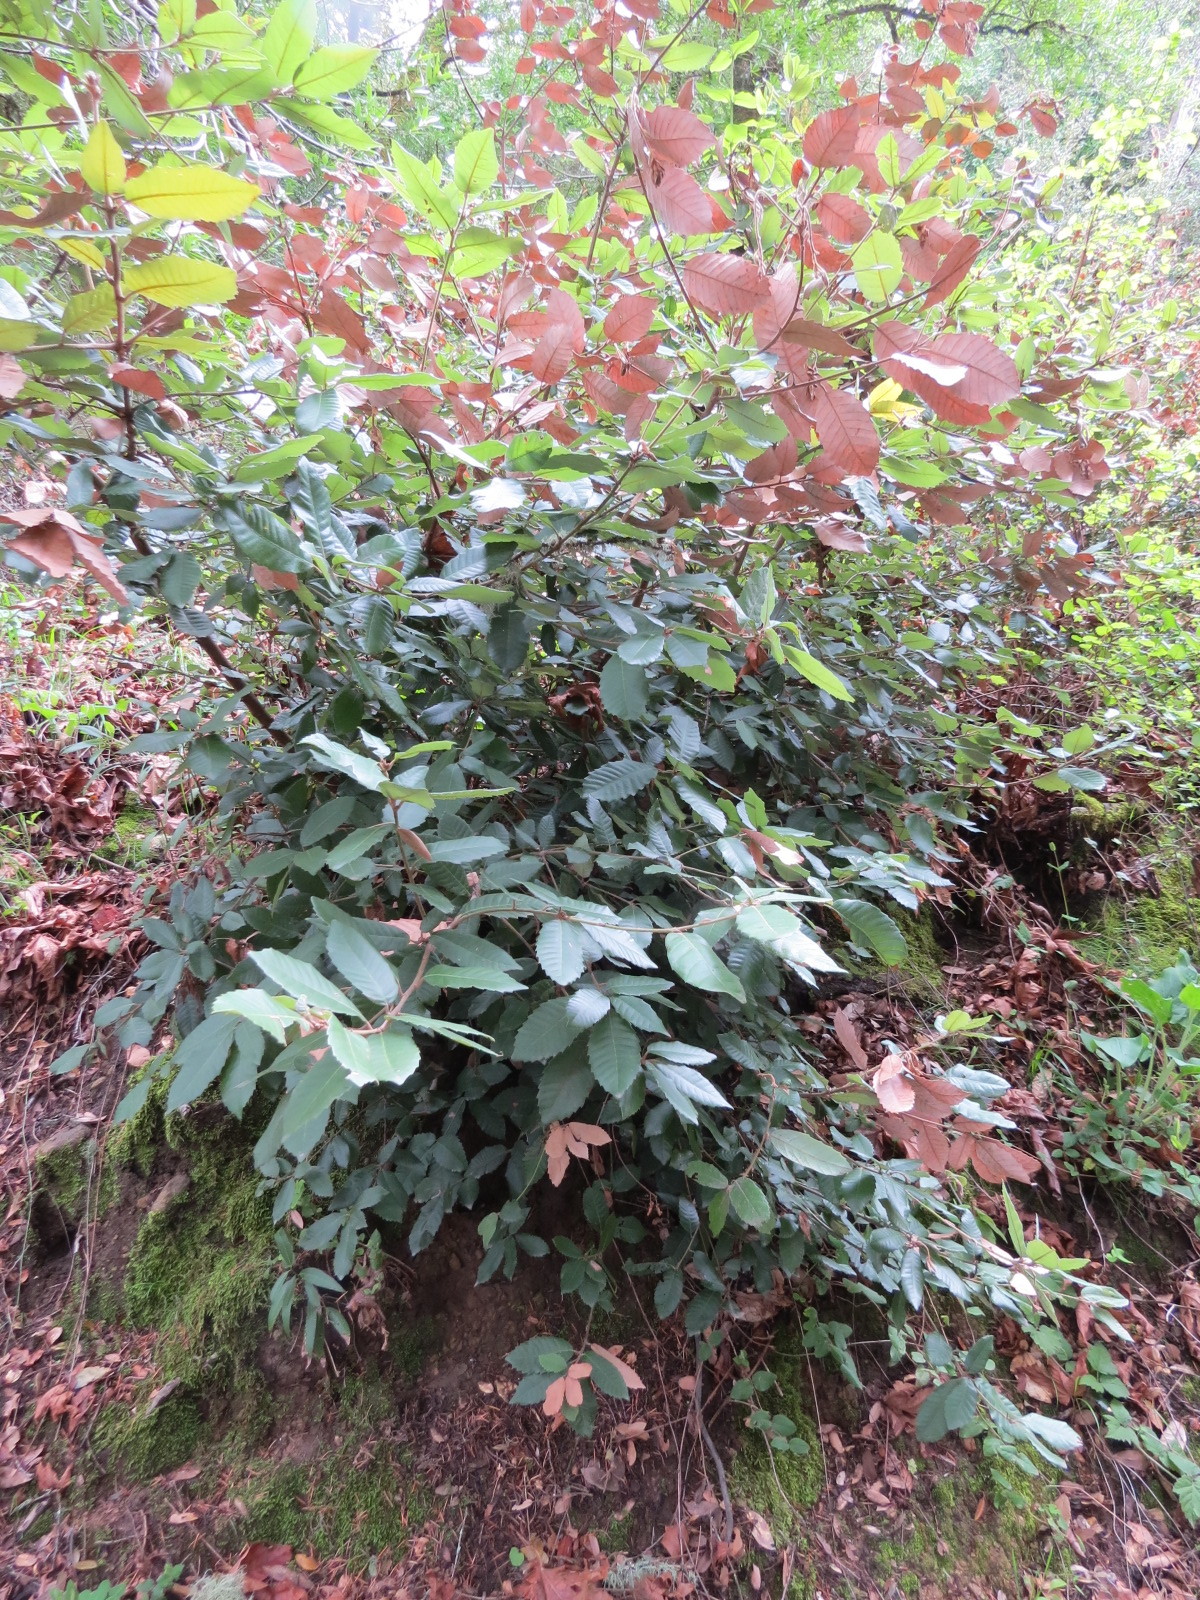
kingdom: Plantae
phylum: Tracheophyta
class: Magnoliopsida
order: Fagales
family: Fagaceae
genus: Notholithocarpus
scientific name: Notholithocarpus densiflorus
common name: Tan bark oak
